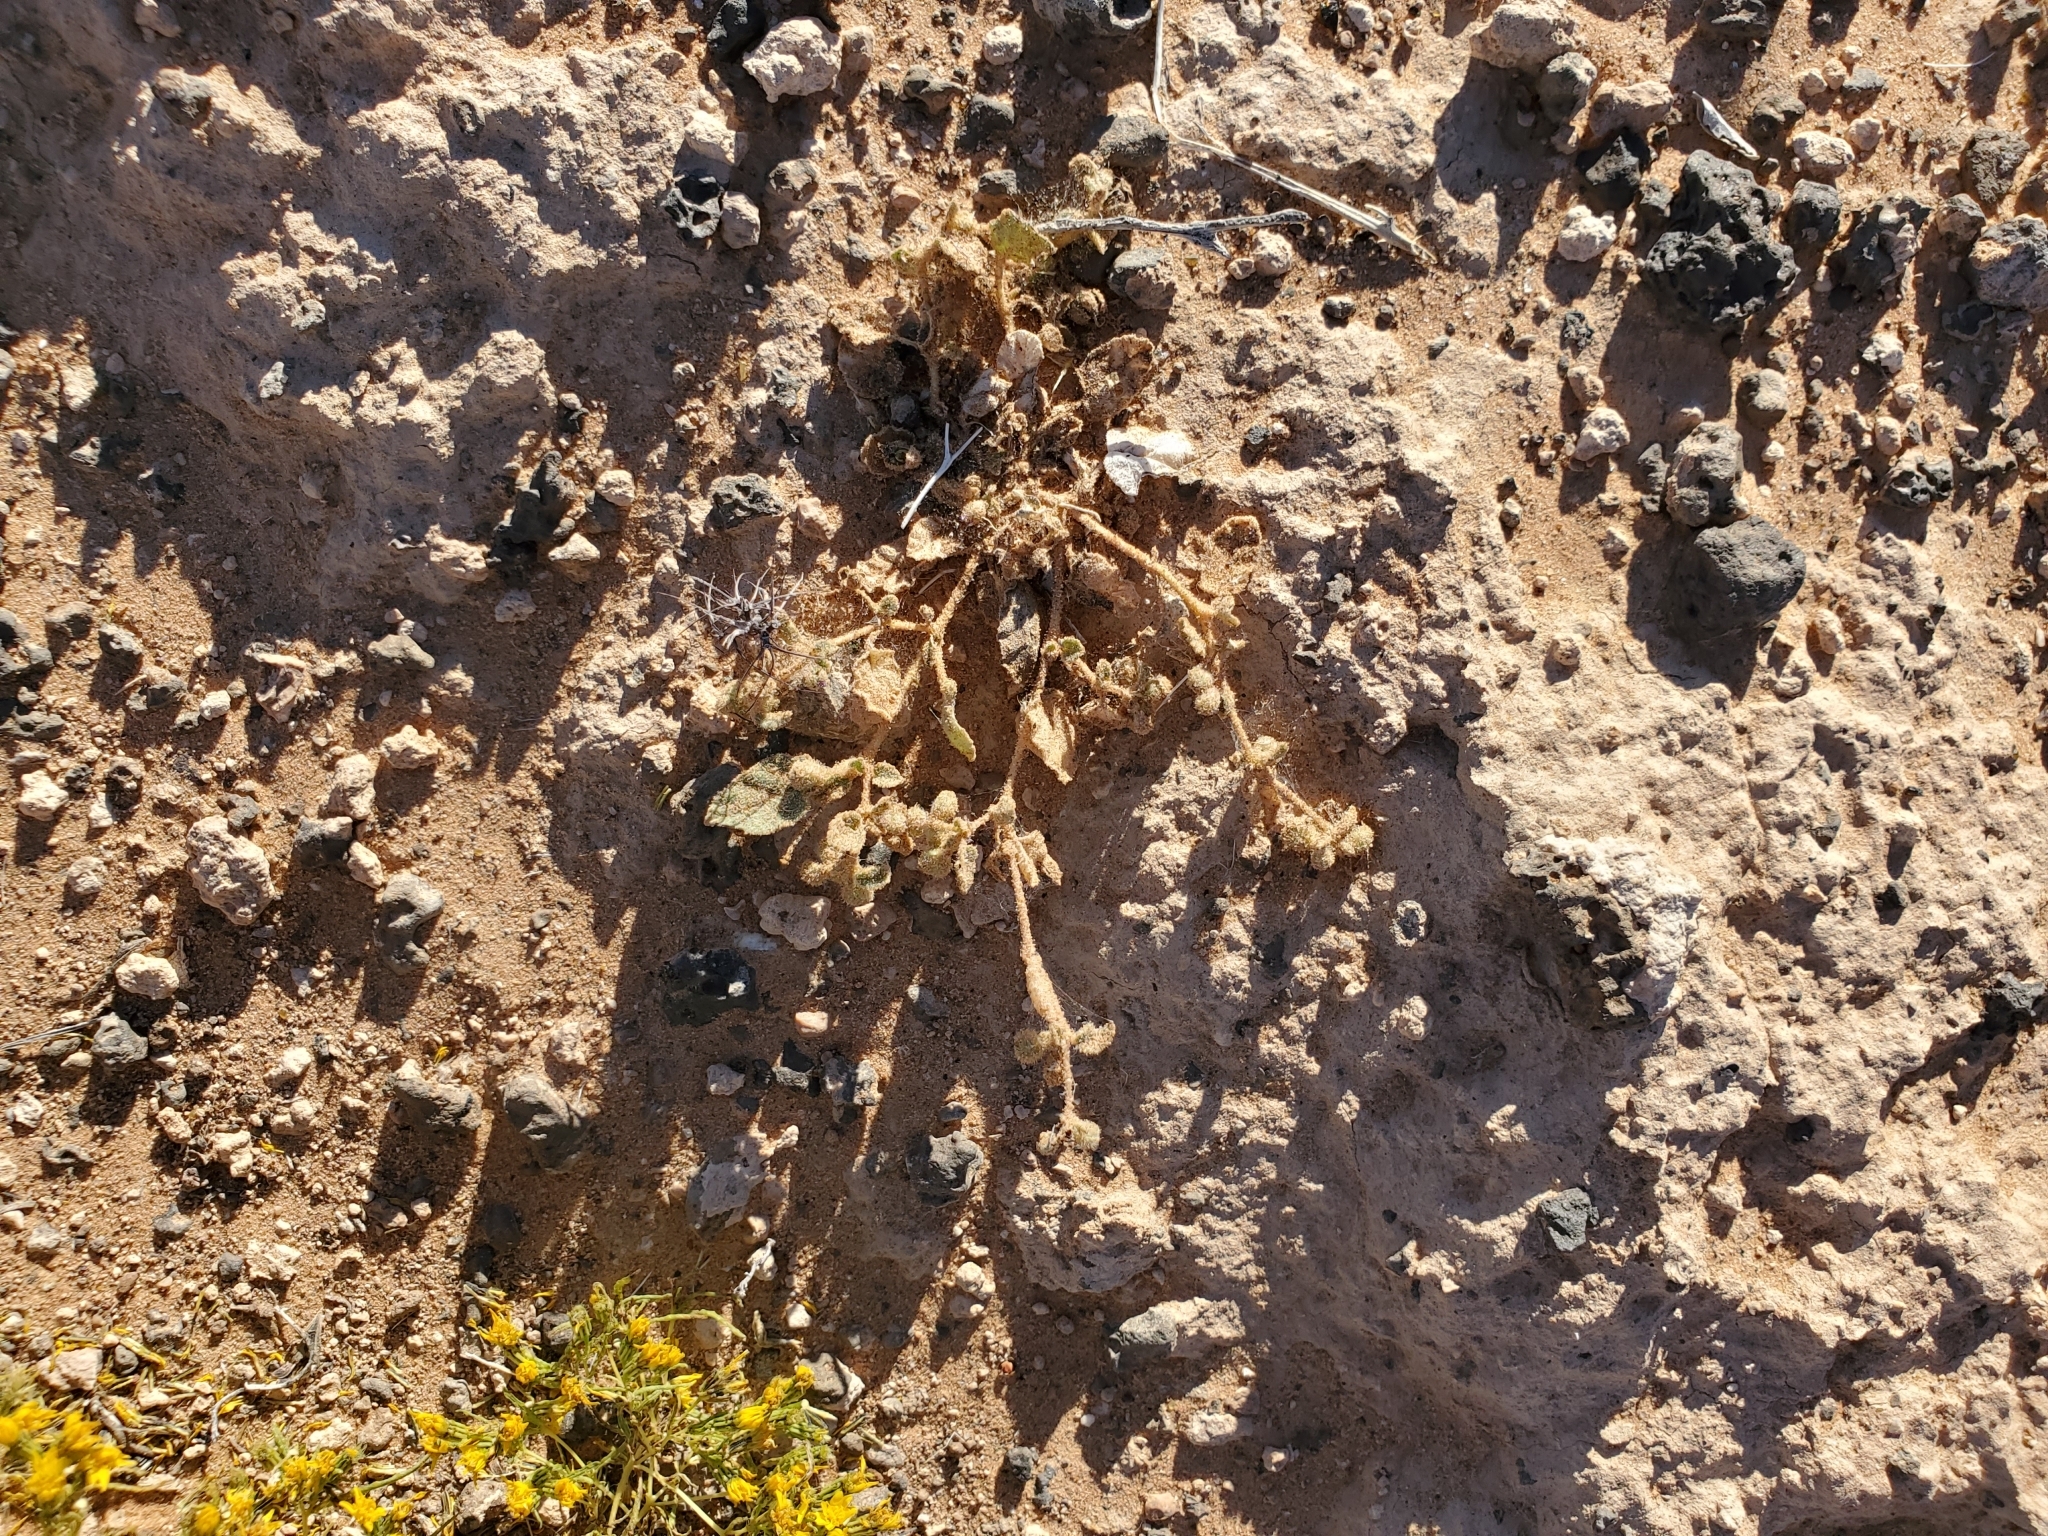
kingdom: Plantae
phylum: Tracheophyta
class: Magnoliopsida
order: Caryophyllales
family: Nyctaginaceae
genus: Allionia
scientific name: Allionia incarnata
